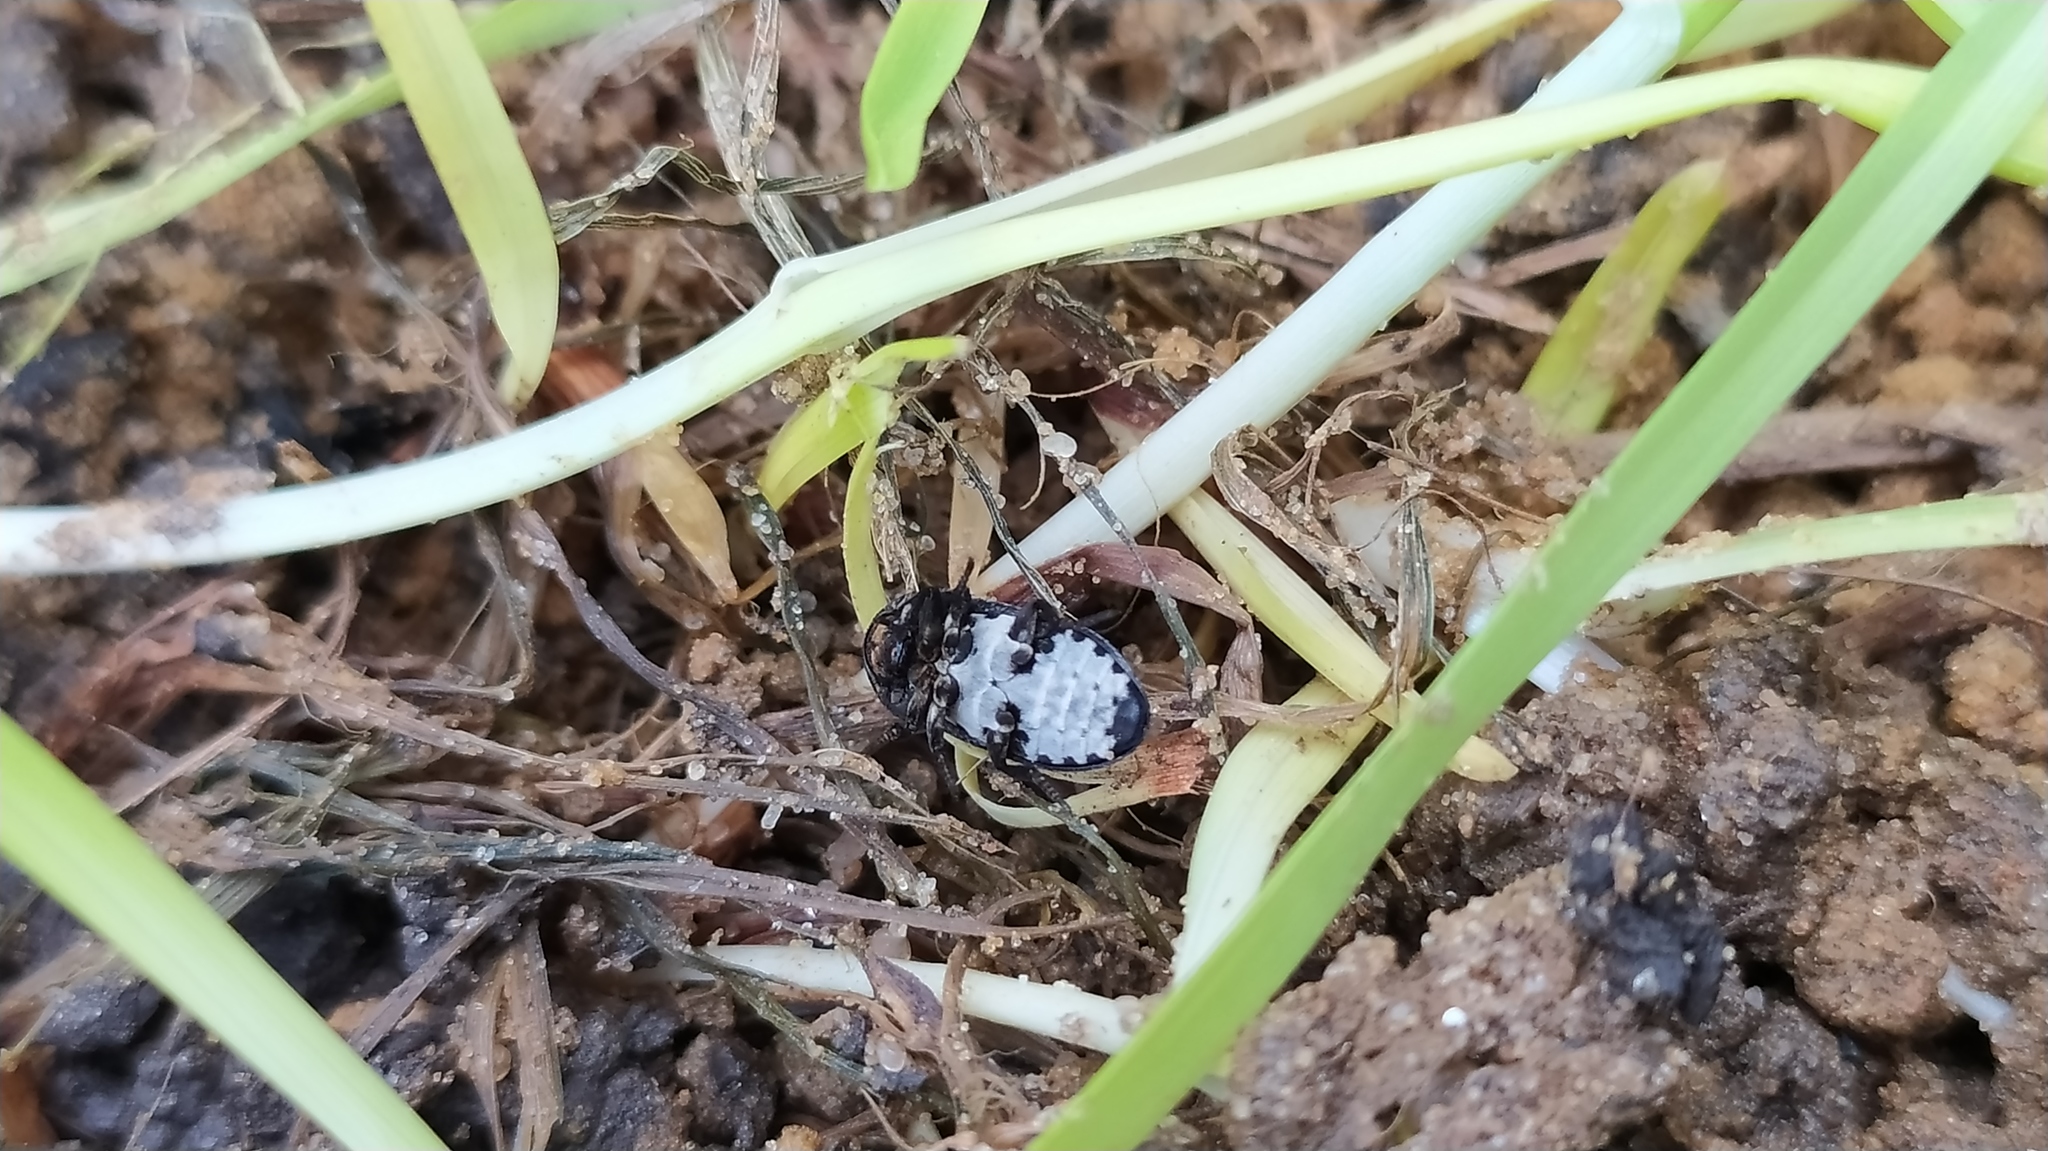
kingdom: Animalia
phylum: Arthropoda
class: Insecta
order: Coleoptera
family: Dermestidae
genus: Dermestes
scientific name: Dermestes laniarius
